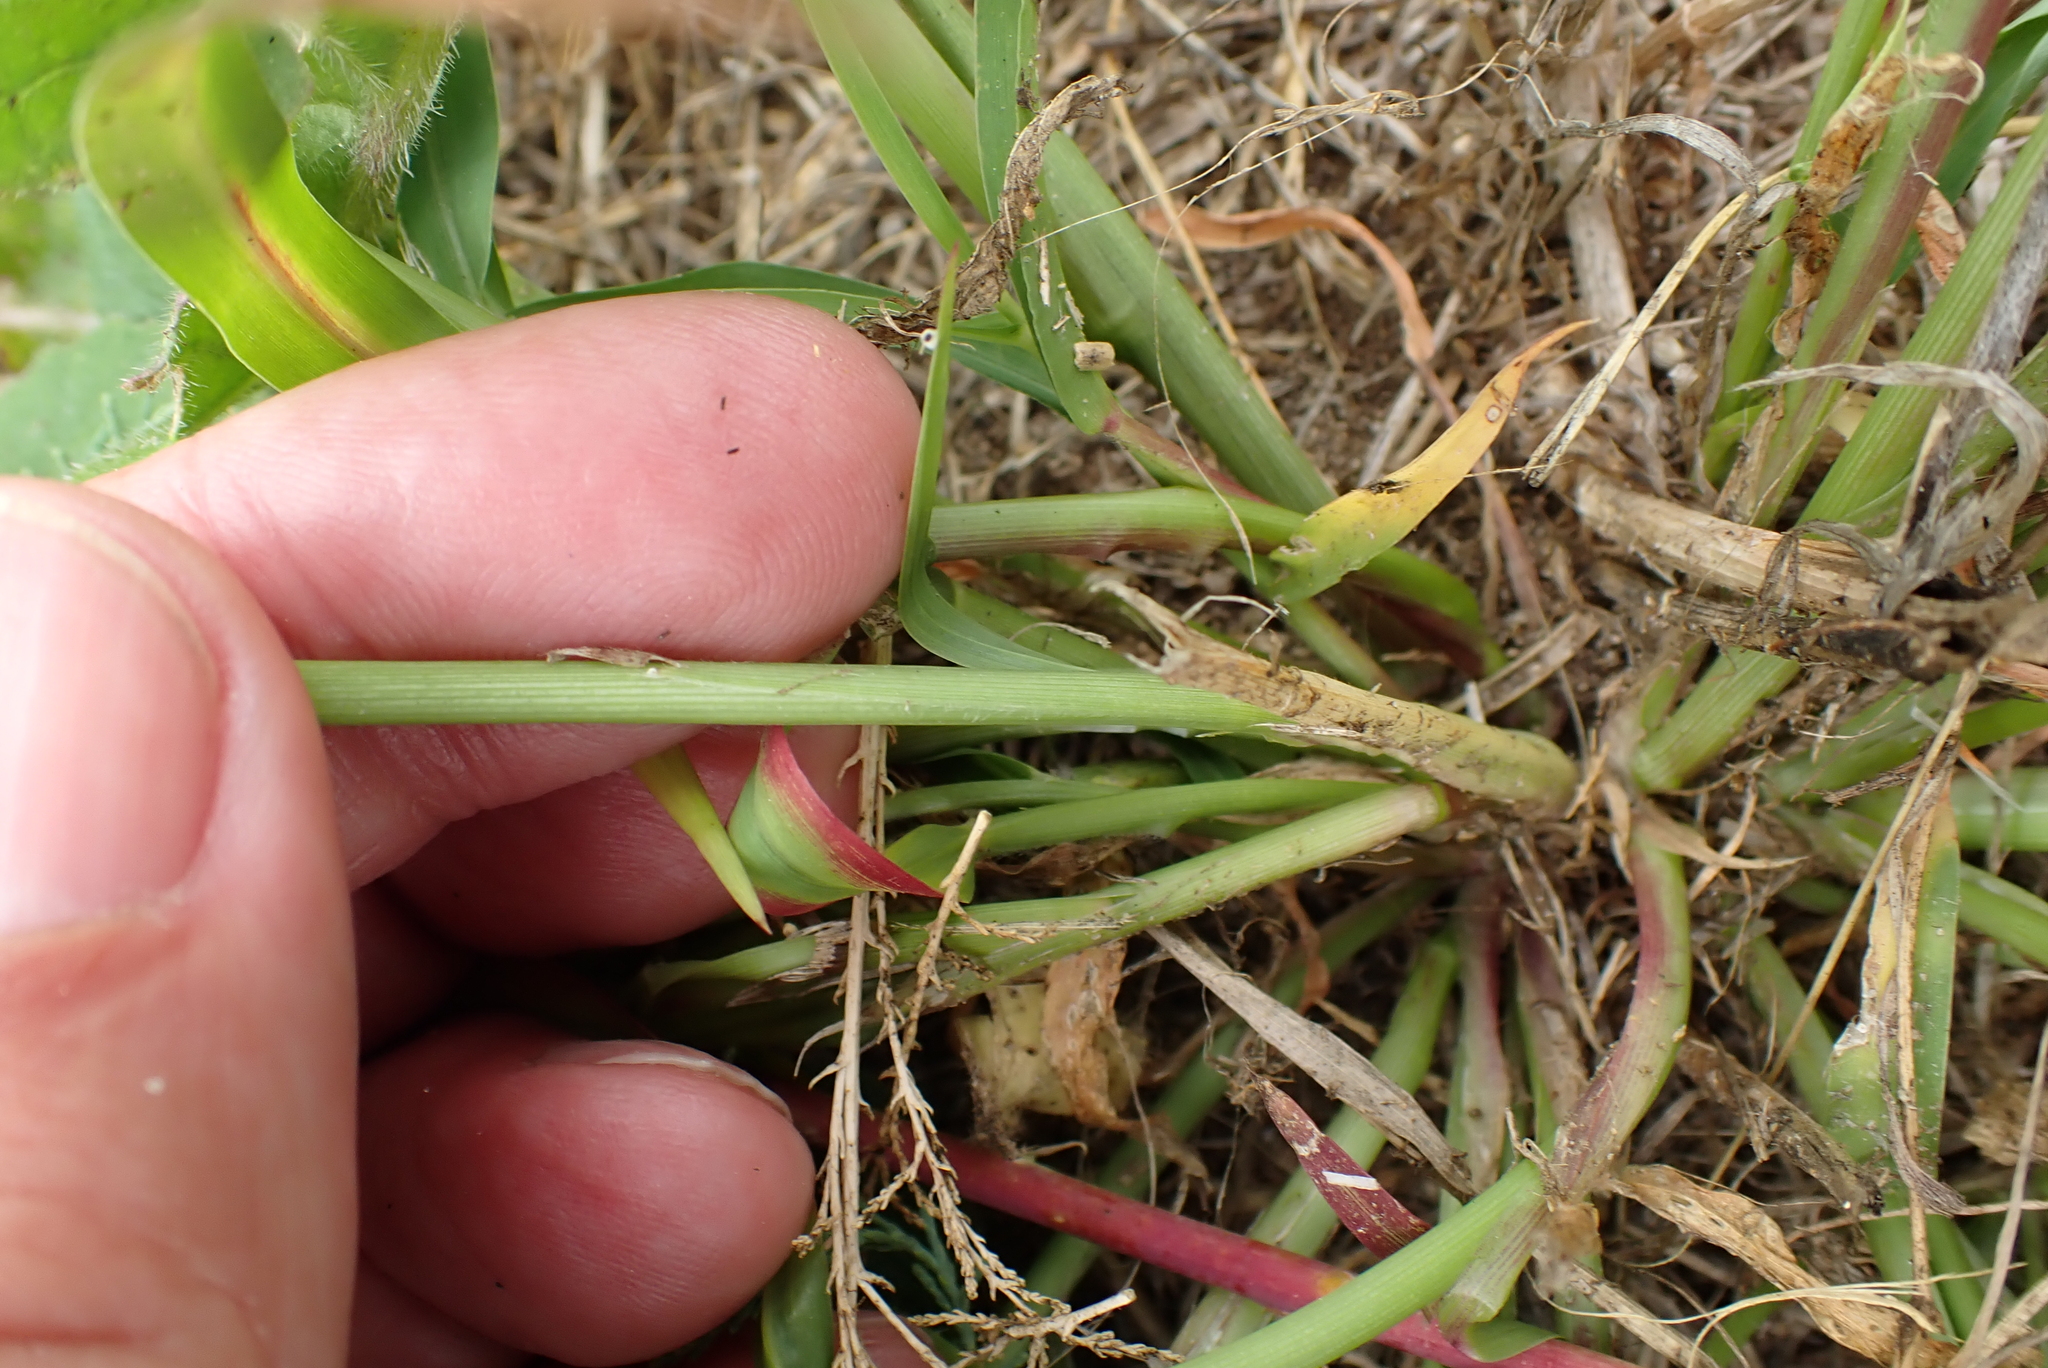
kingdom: Plantae
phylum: Tracheophyta
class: Liliopsida
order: Poales
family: Poaceae
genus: Setaria
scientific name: Setaria viridis
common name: Green bristlegrass
